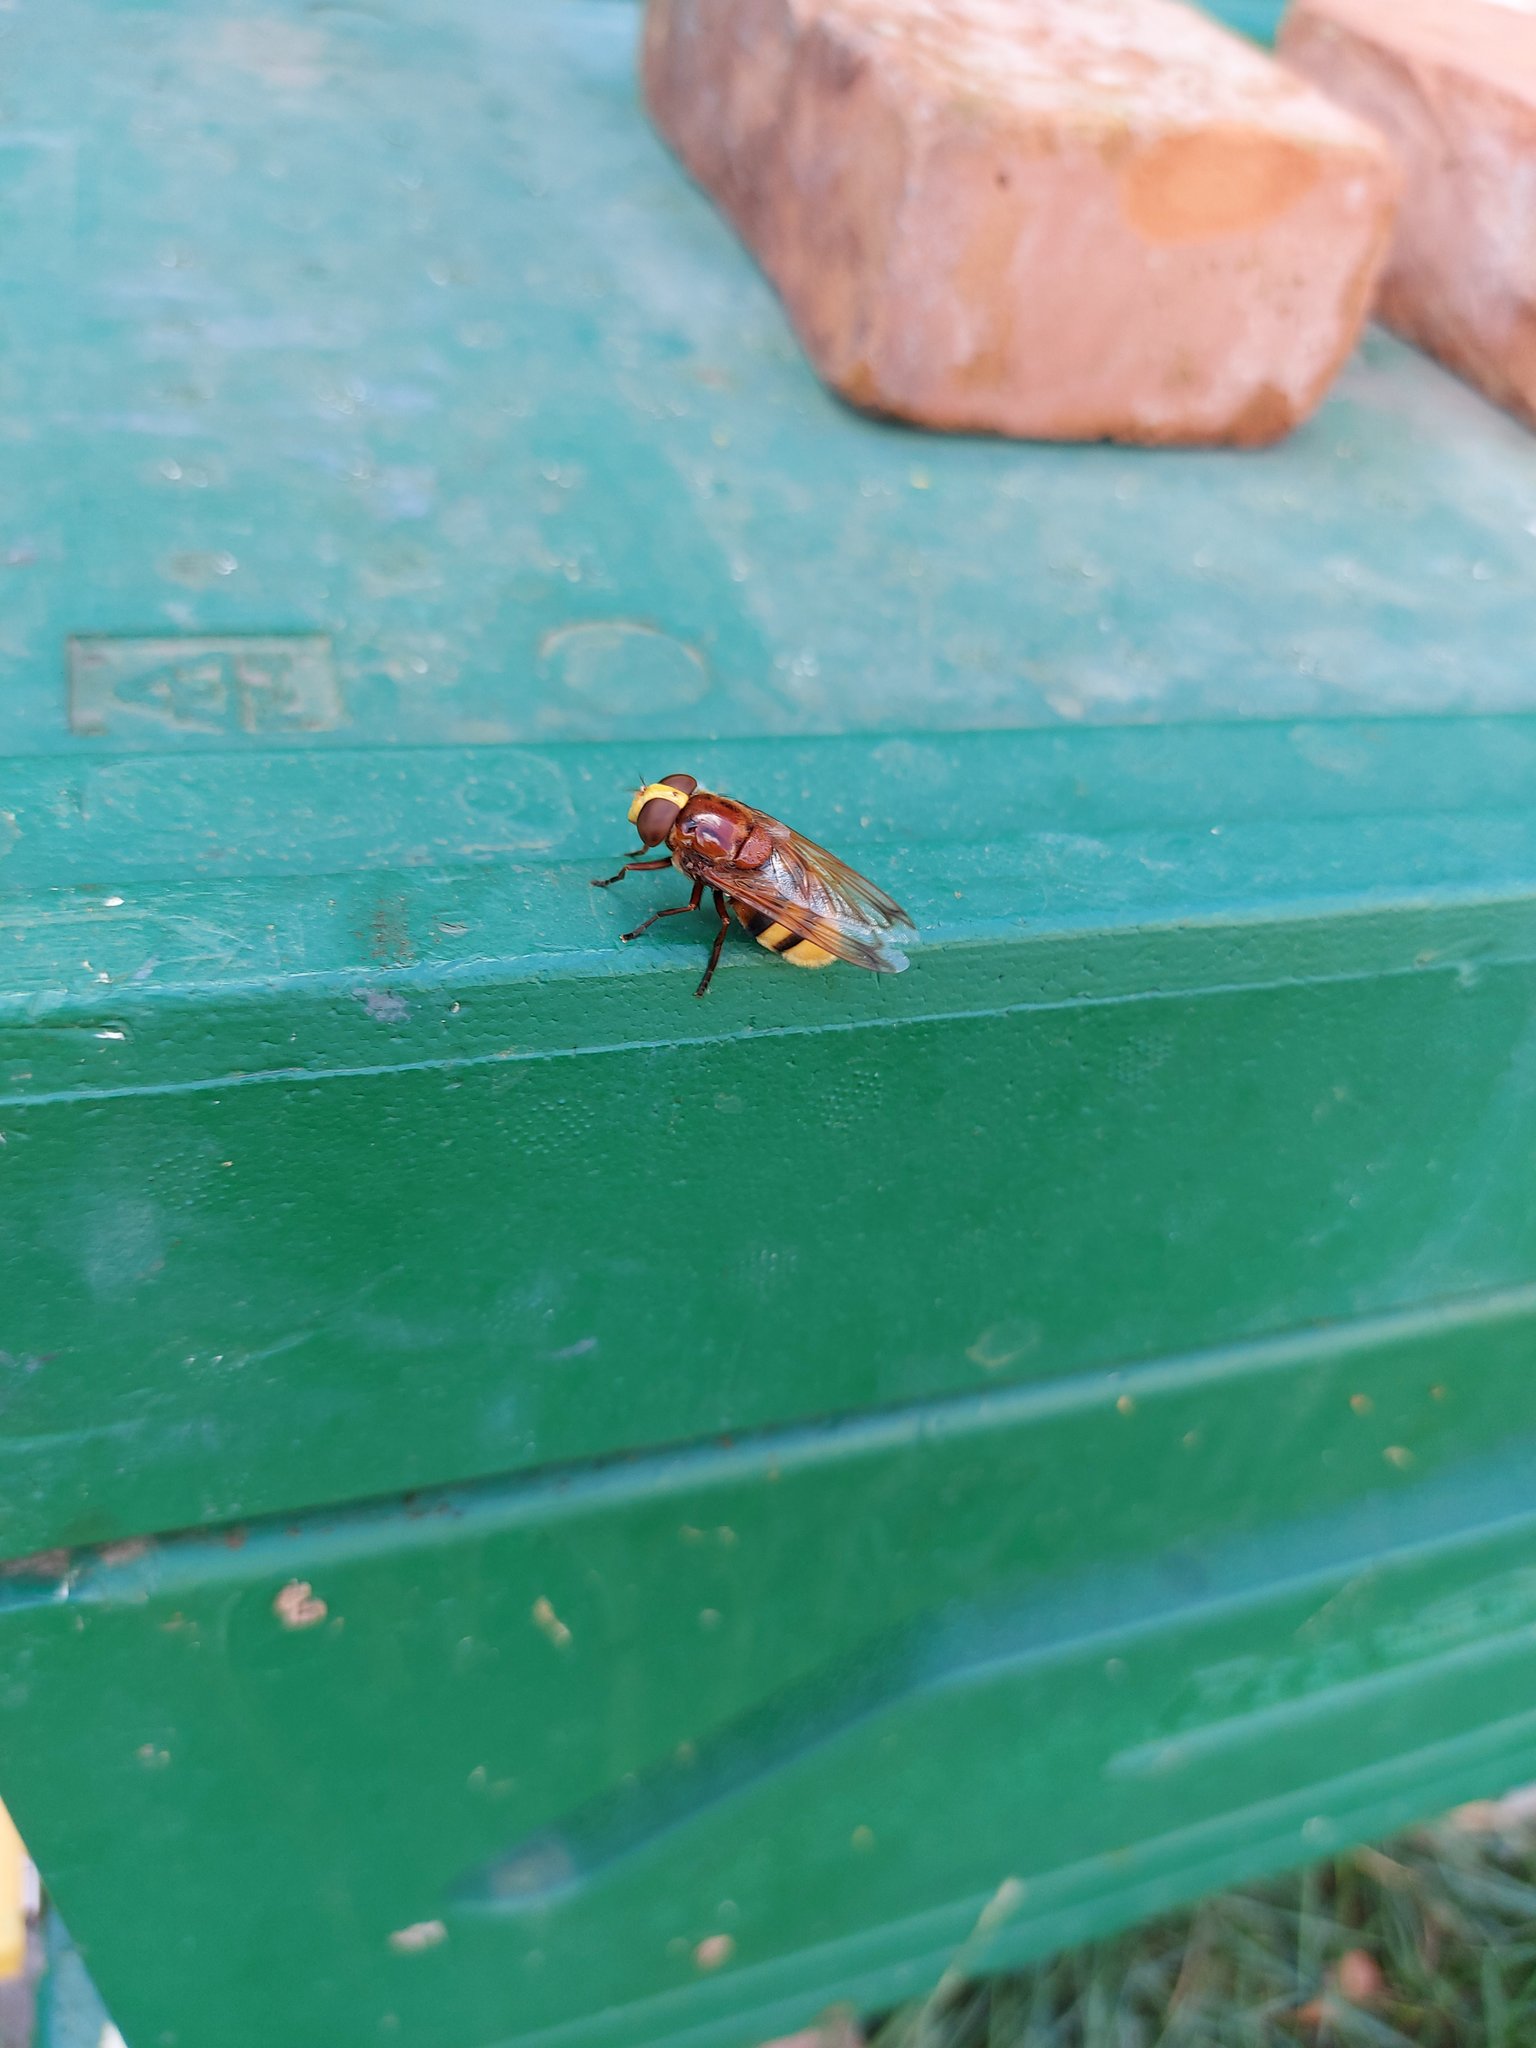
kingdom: Animalia
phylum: Arthropoda
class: Insecta
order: Diptera
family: Syrphidae
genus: Volucella
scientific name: Volucella zonaria
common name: Hornet hoverfly
